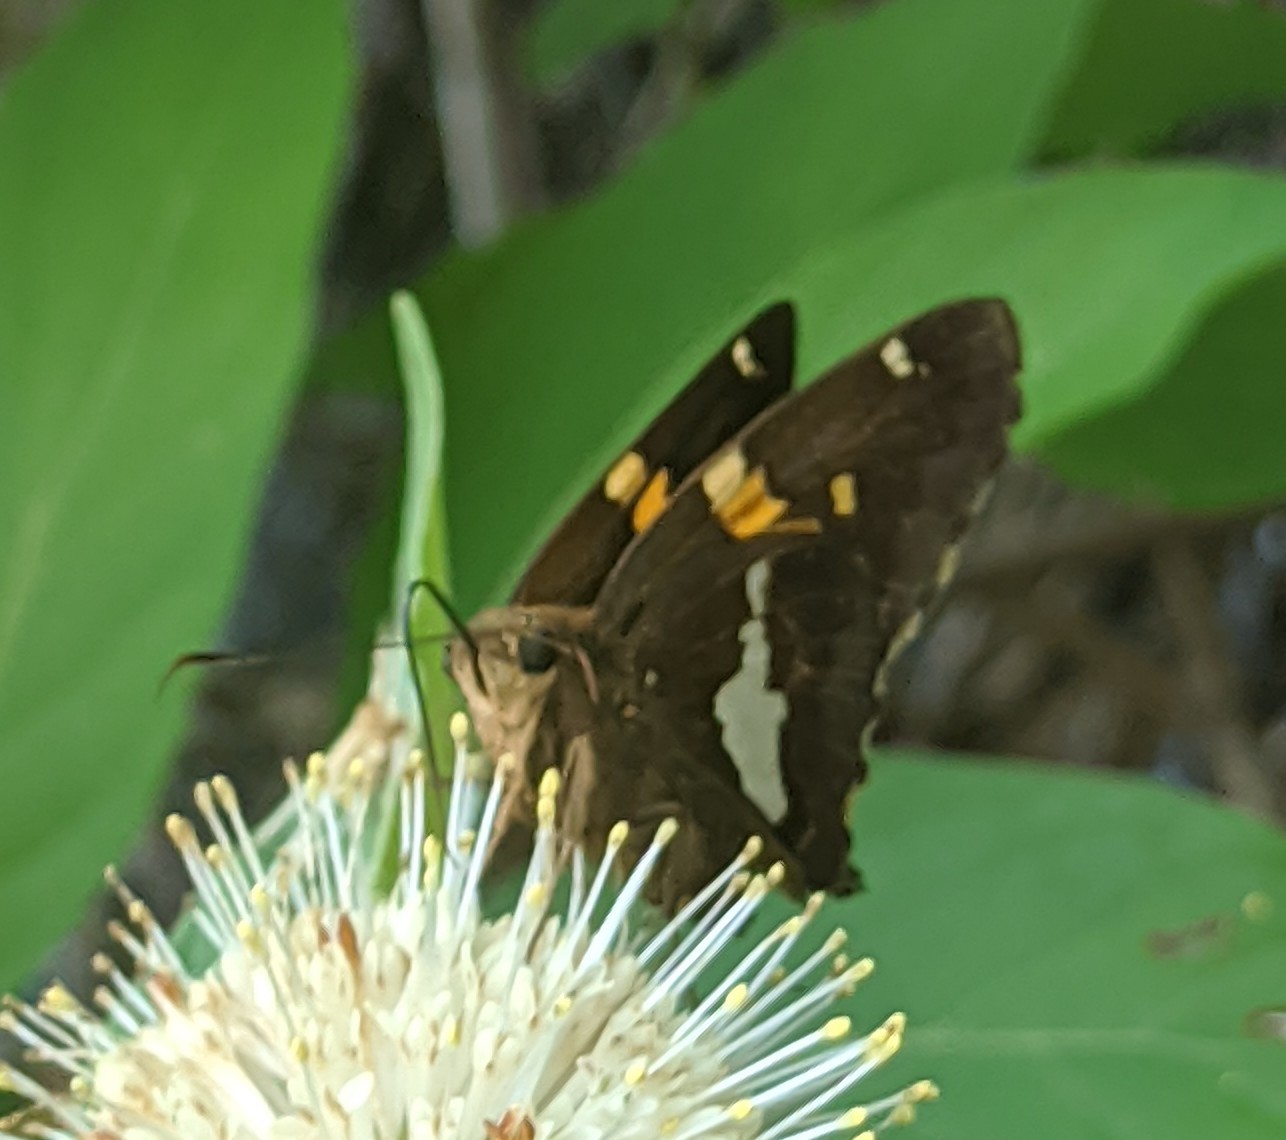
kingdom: Animalia
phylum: Arthropoda
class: Insecta
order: Lepidoptera
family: Hesperiidae
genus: Epargyreus
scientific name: Epargyreus clarus
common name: Silver-spotted skipper
